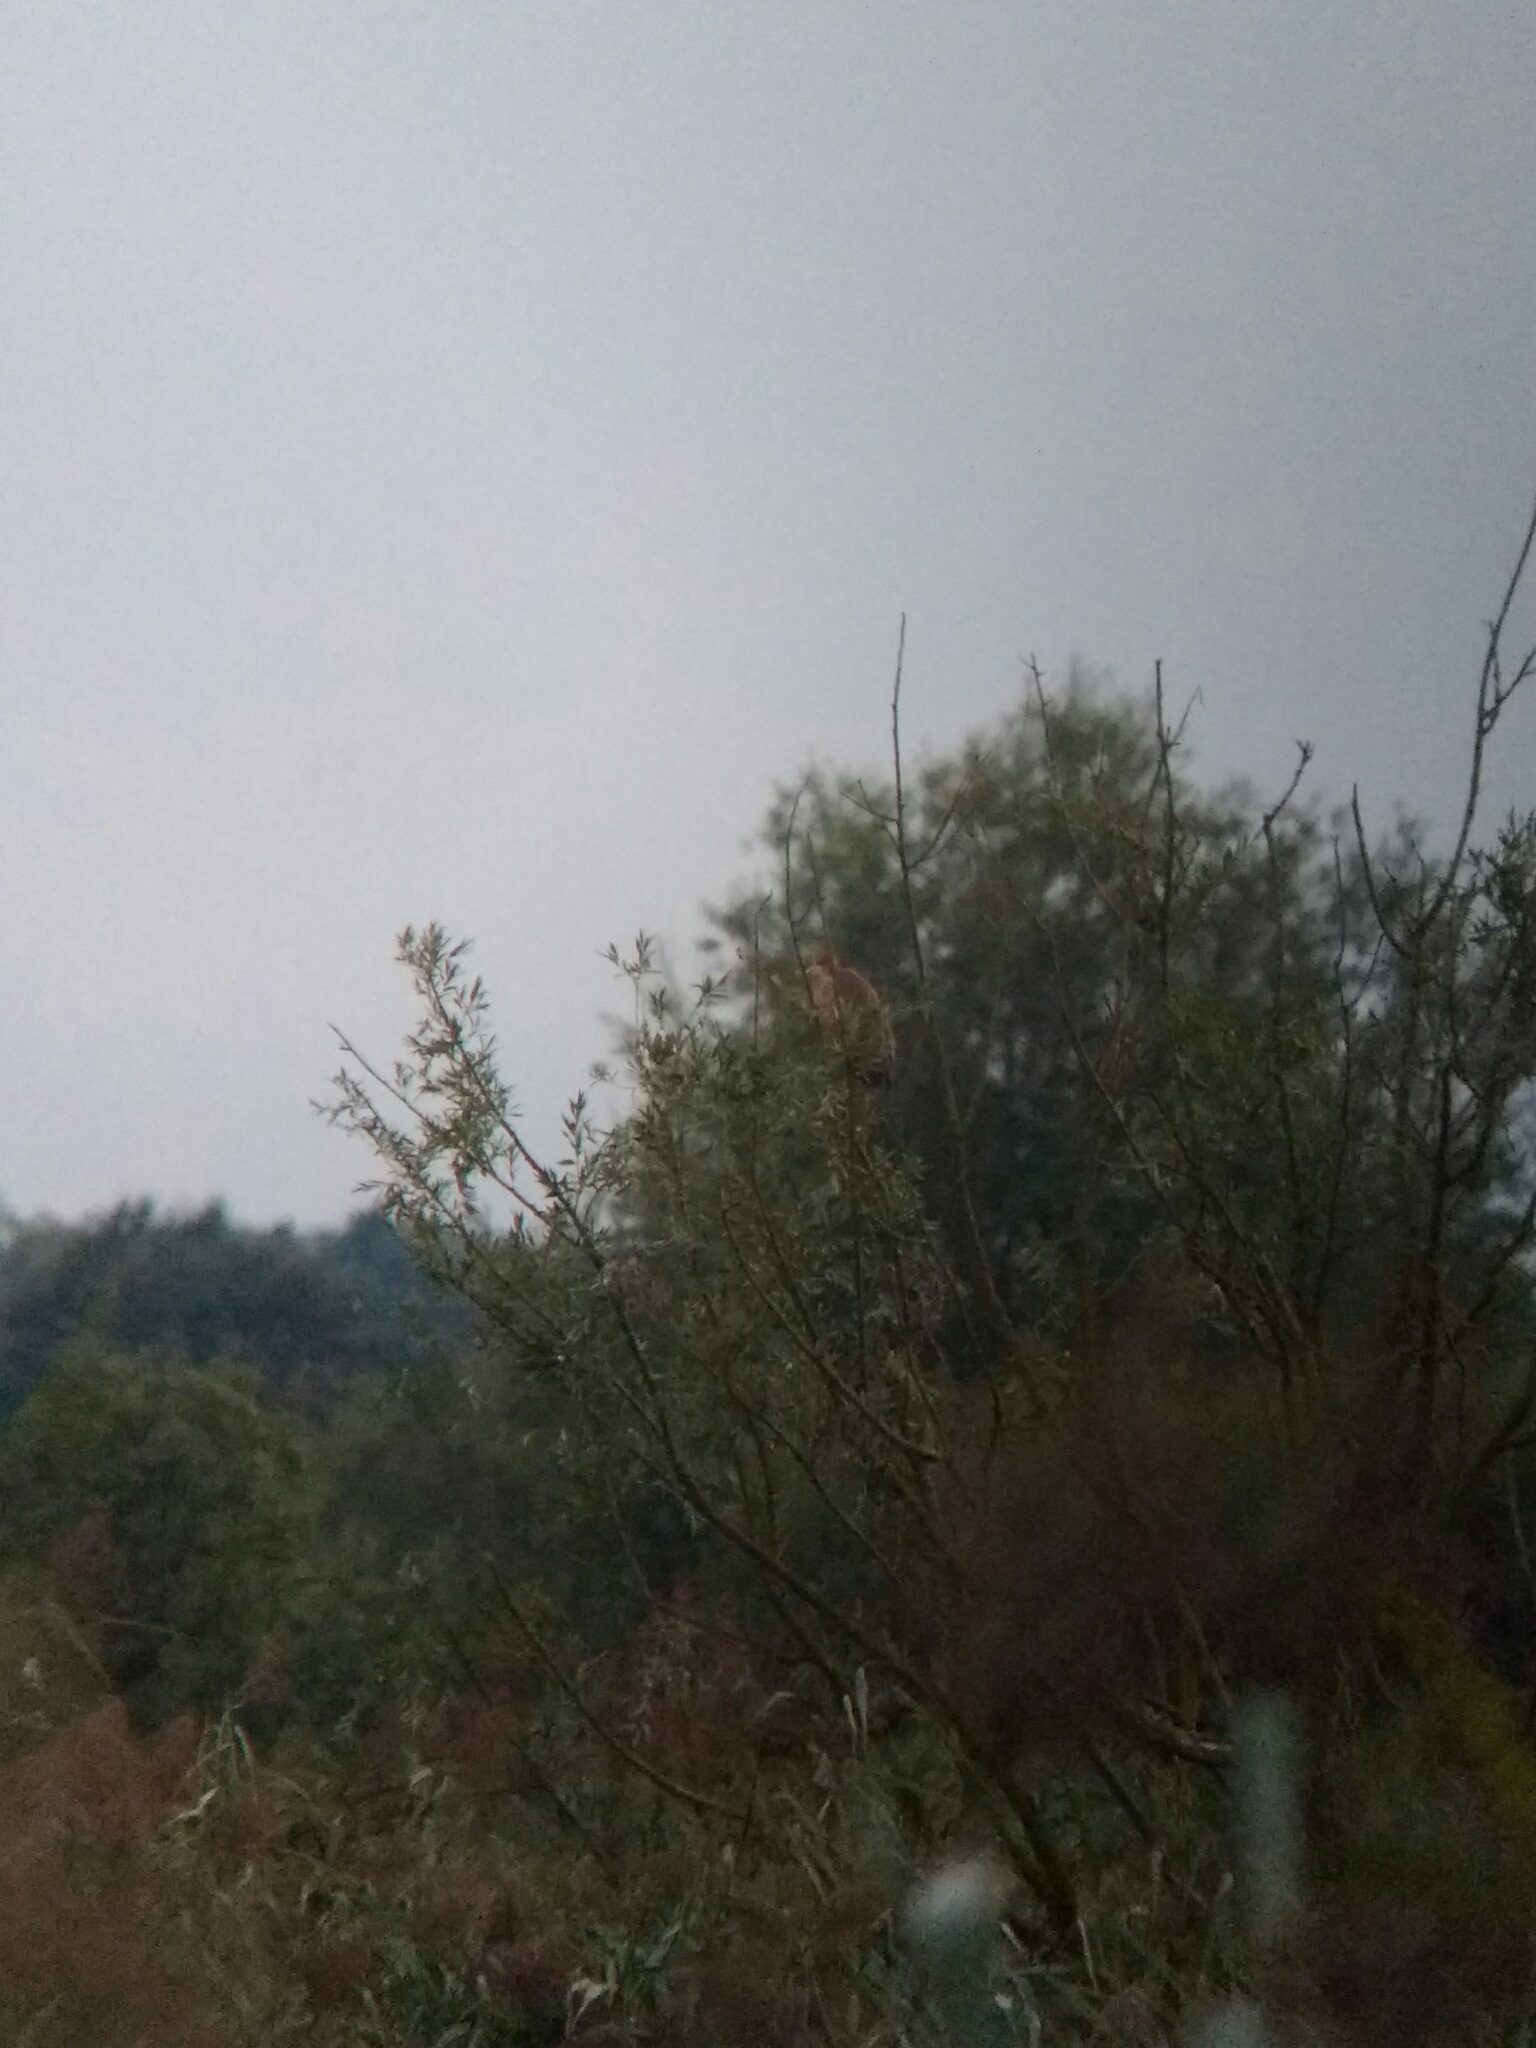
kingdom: Animalia
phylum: Chordata
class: Aves
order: Pelecaniformes
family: Ardeidae
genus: Ardea
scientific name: Ardea purpurea
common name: Purple heron
